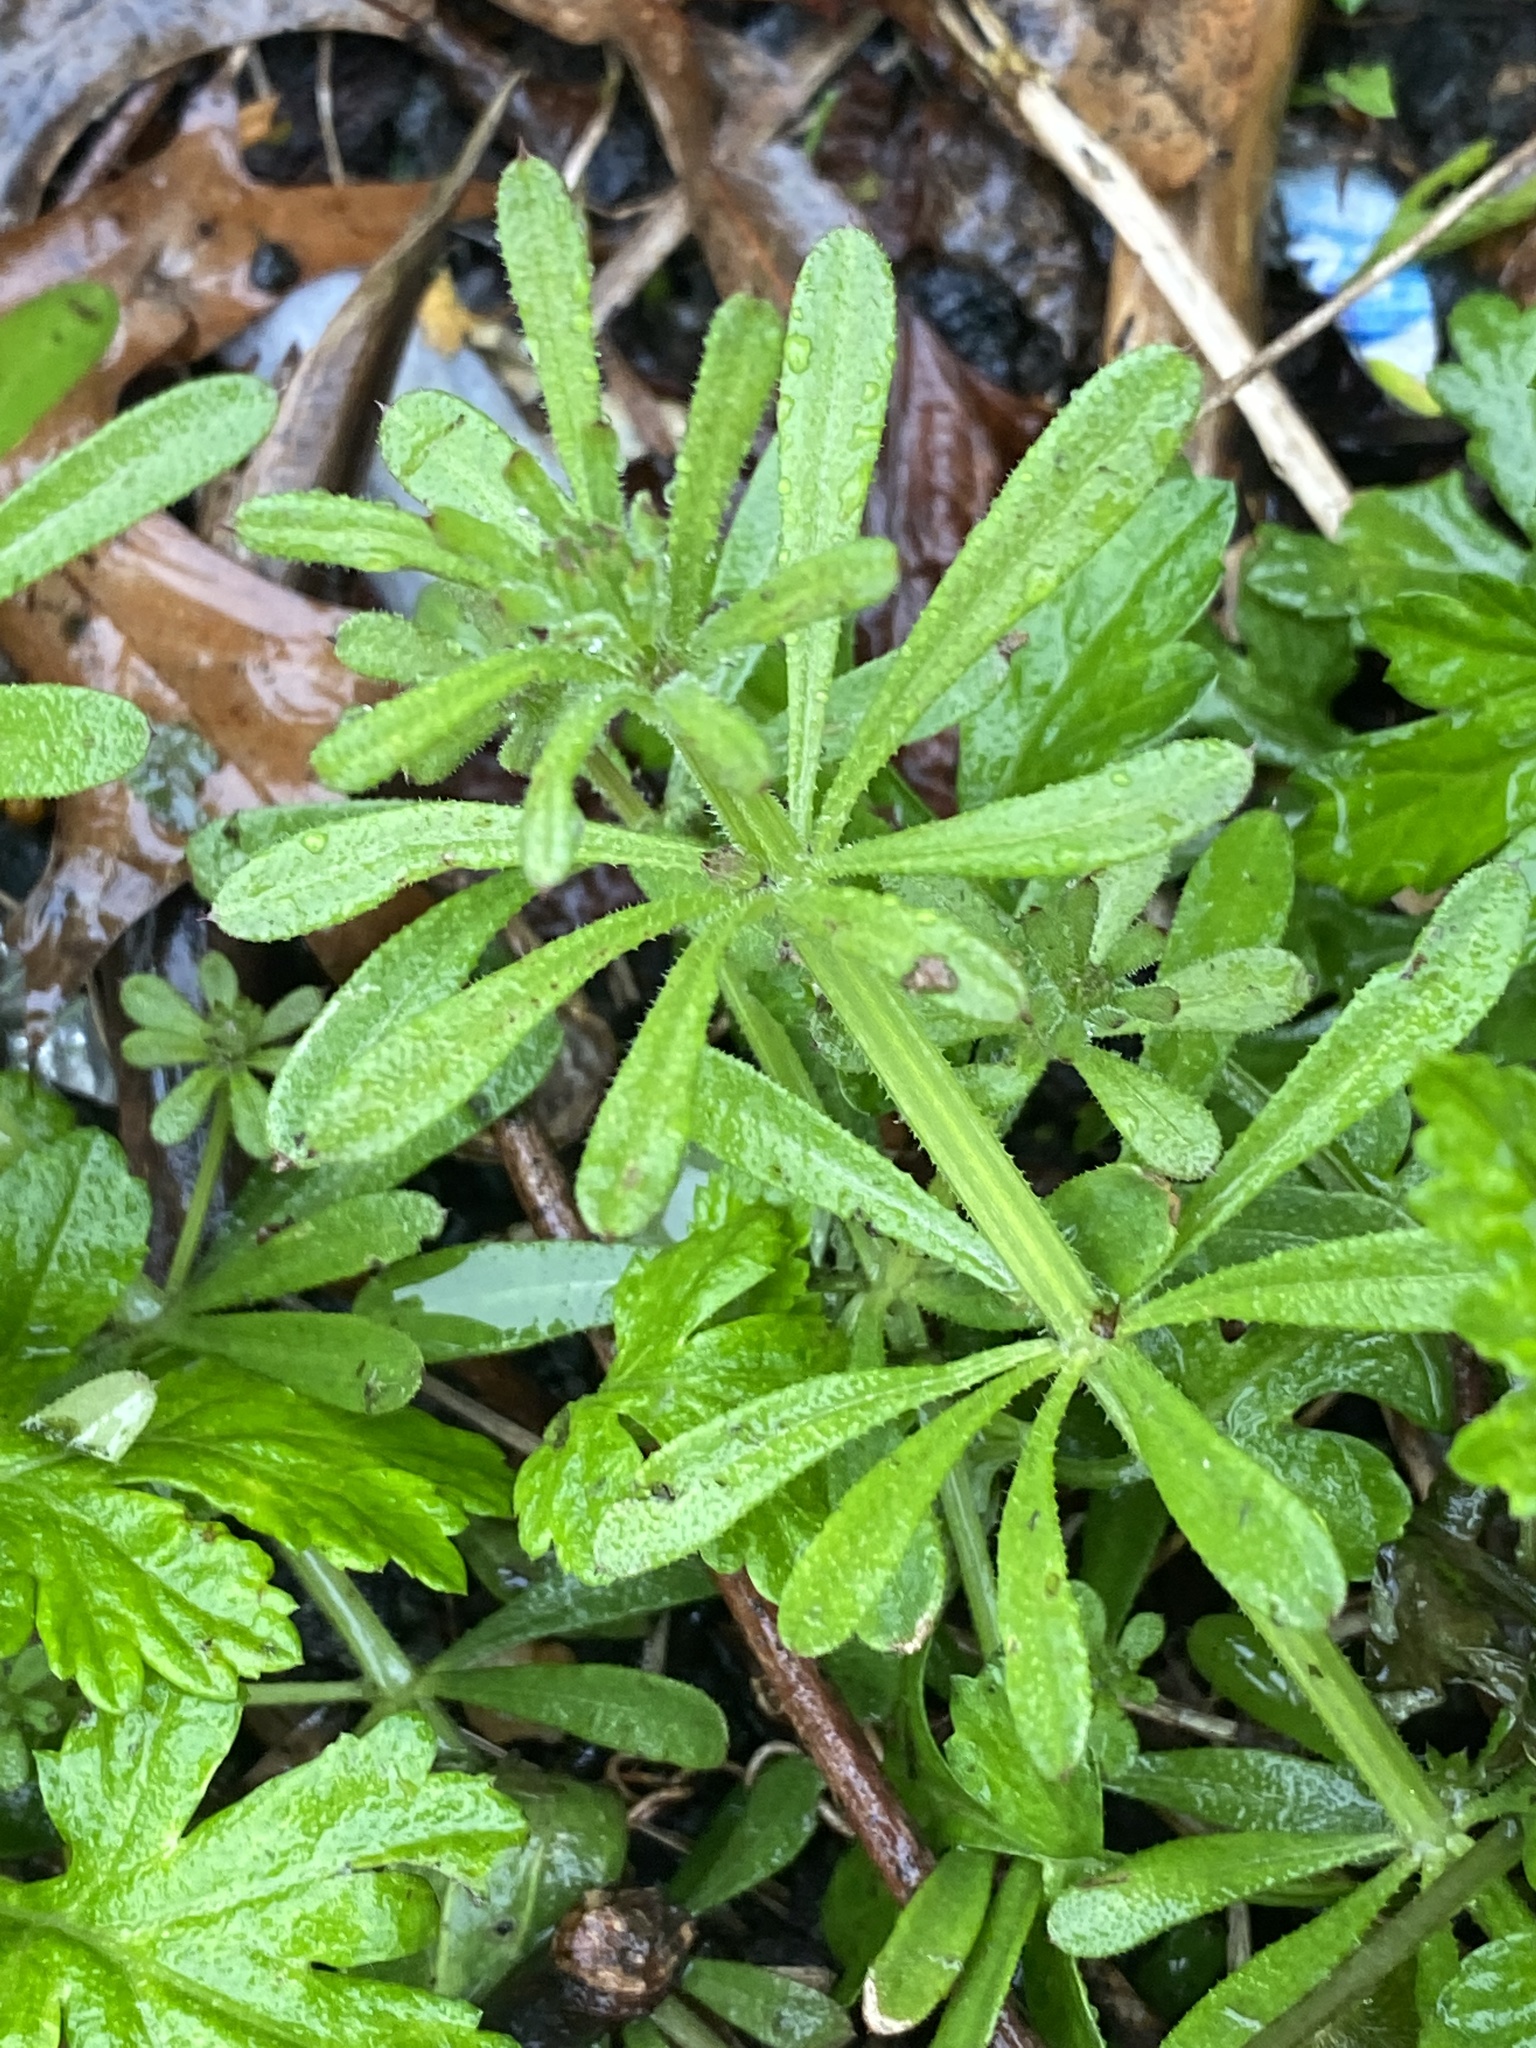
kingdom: Plantae
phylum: Tracheophyta
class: Magnoliopsida
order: Gentianales
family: Rubiaceae
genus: Galium
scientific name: Galium aparine
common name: Cleavers
